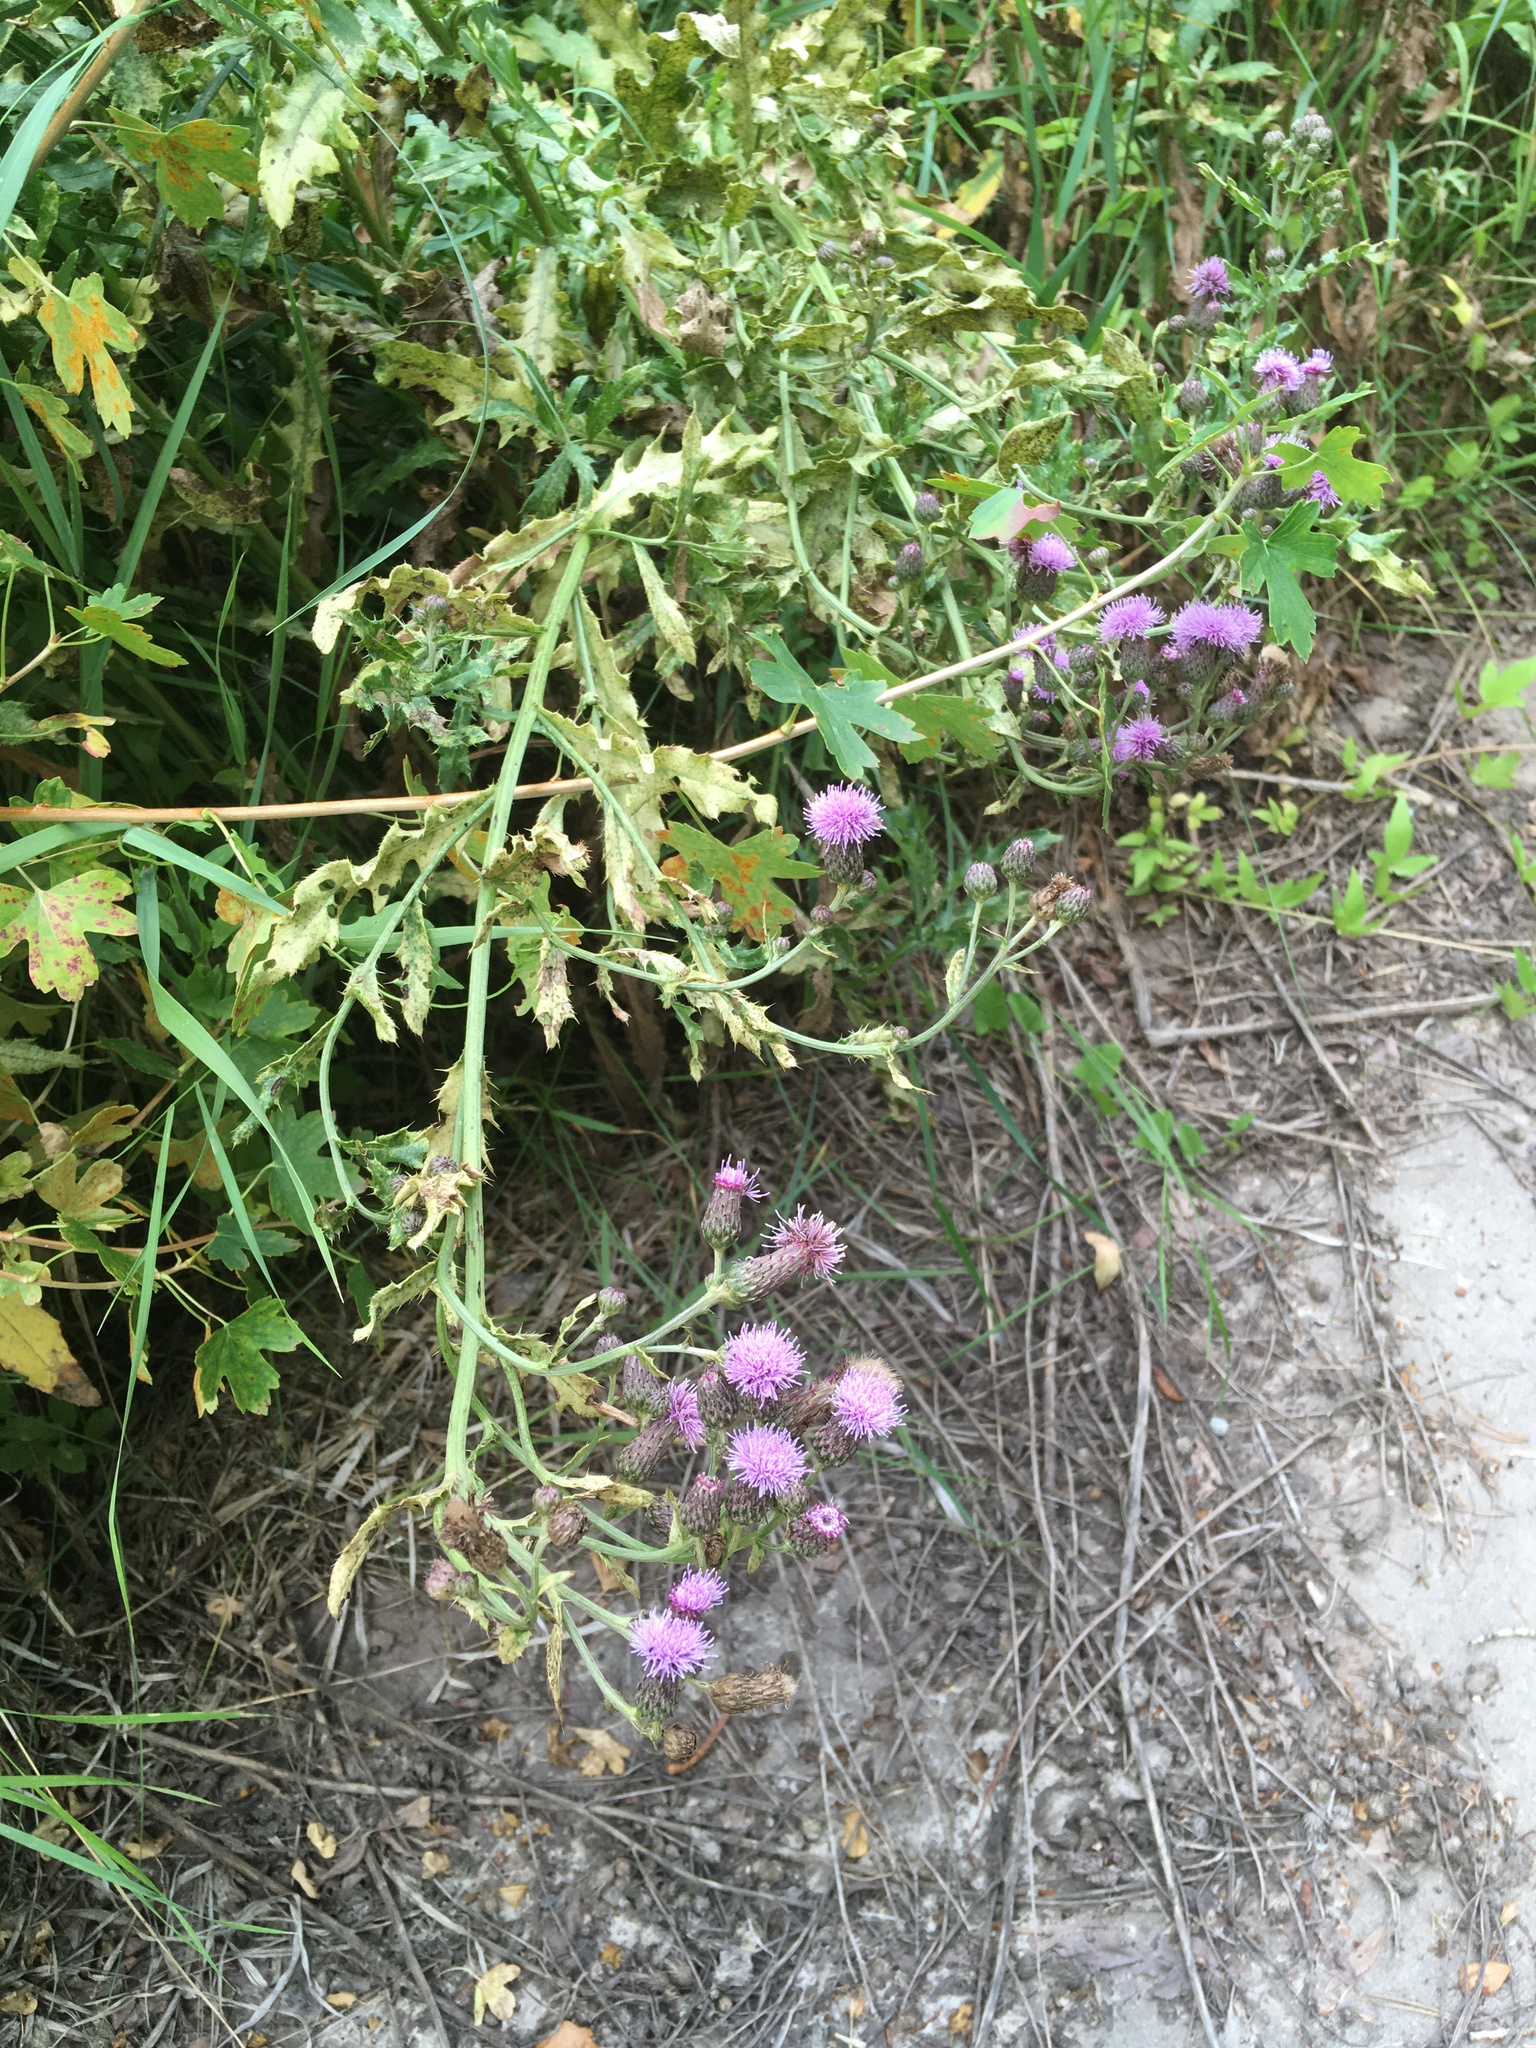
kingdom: Plantae
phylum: Tracheophyta
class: Magnoliopsida
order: Asterales
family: Asteraceae
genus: Cirsium
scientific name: Cirsium arvense
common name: Creeping thistle
